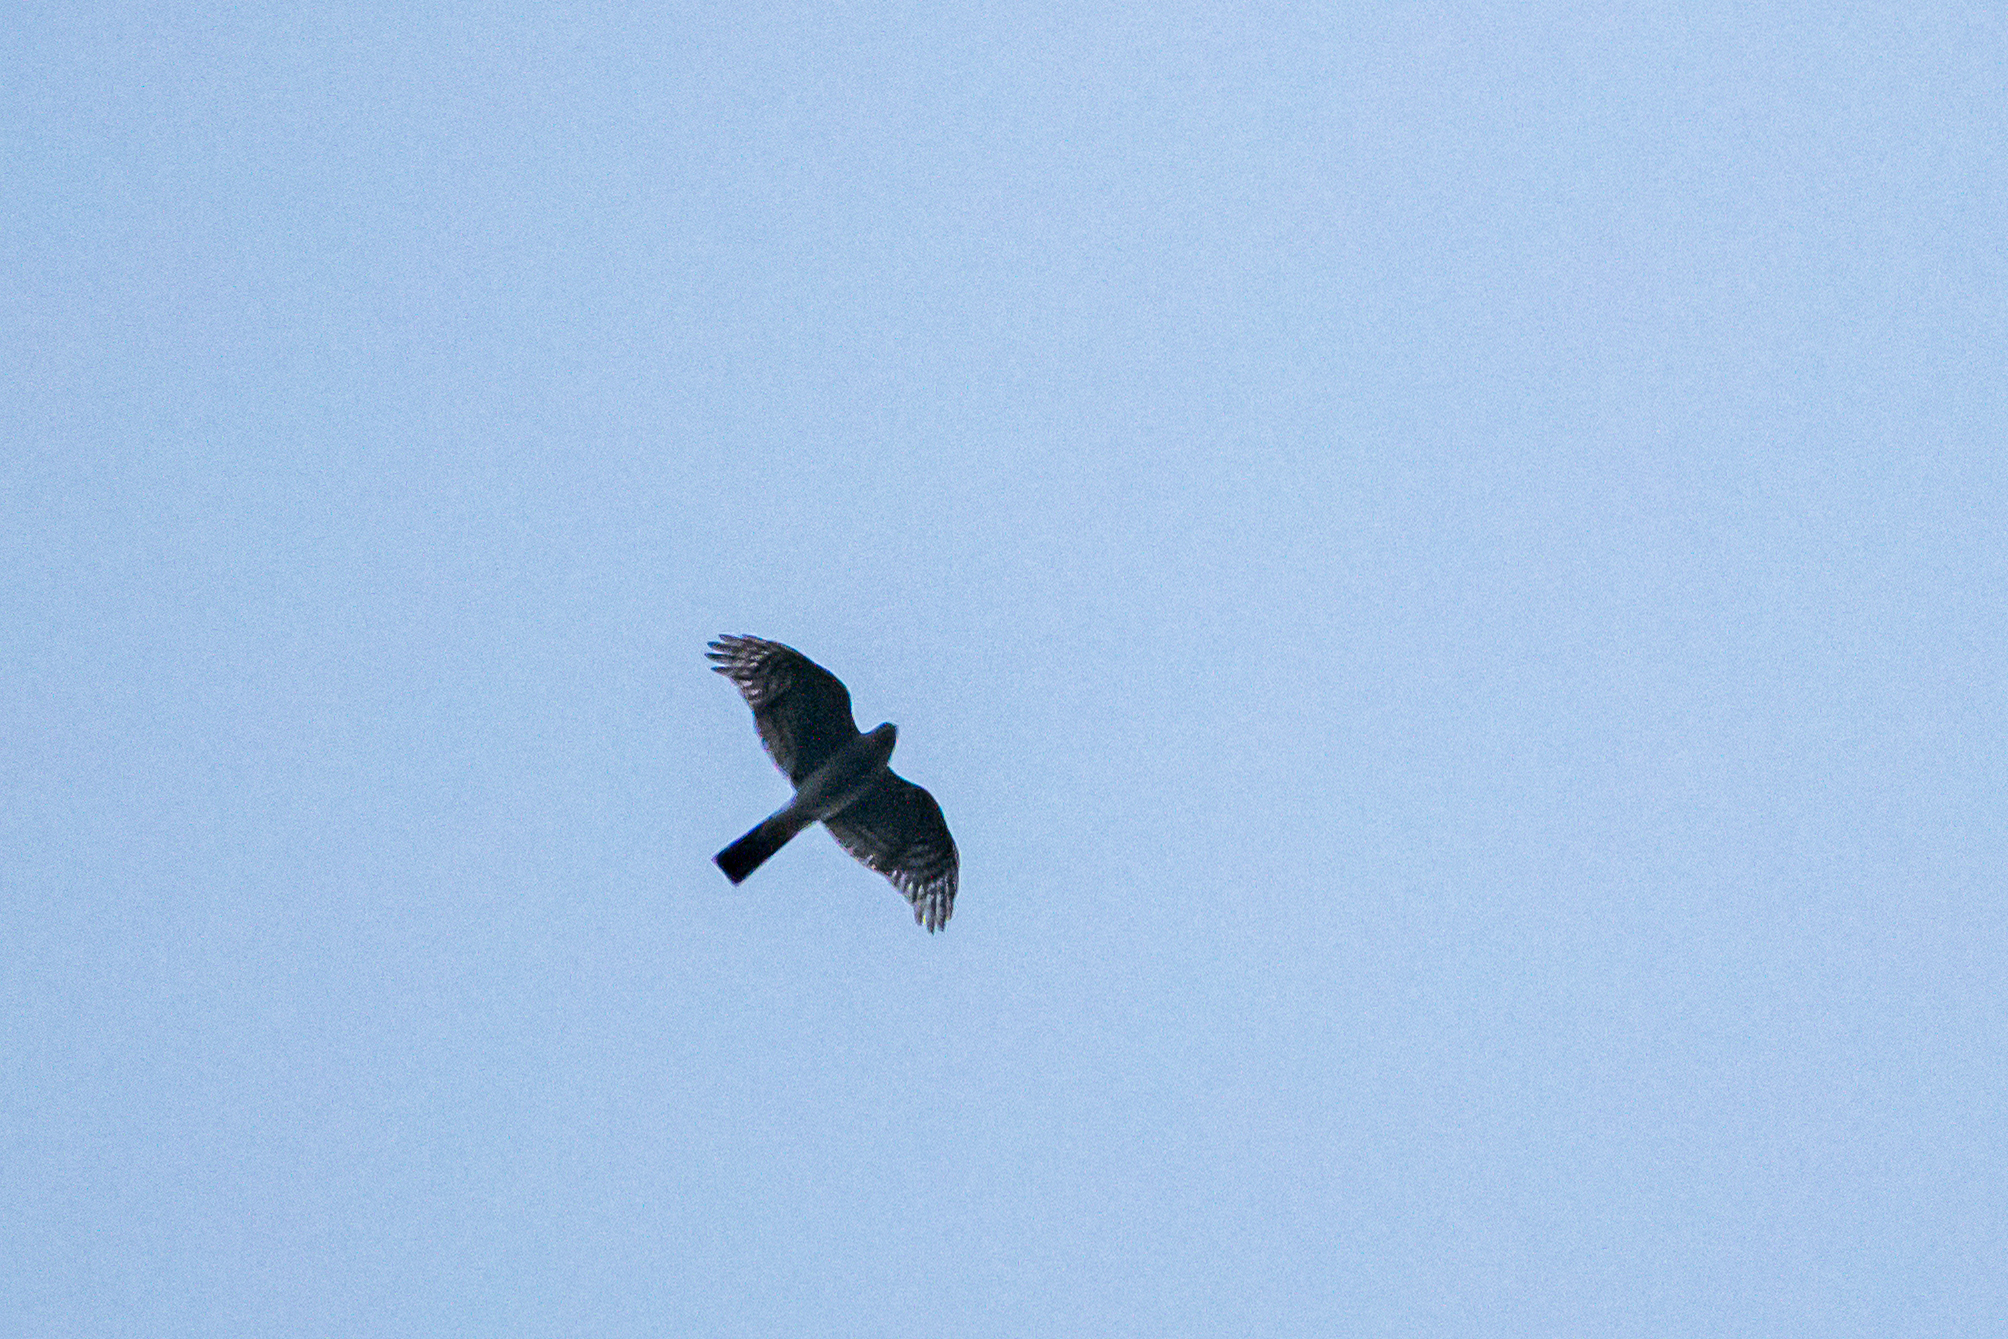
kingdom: Animalia
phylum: Chordata
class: Aves
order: Accipitriformes
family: Accipitridae
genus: Accipiter
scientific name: Accipiter nisus
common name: Eurasian sparrowhawk
